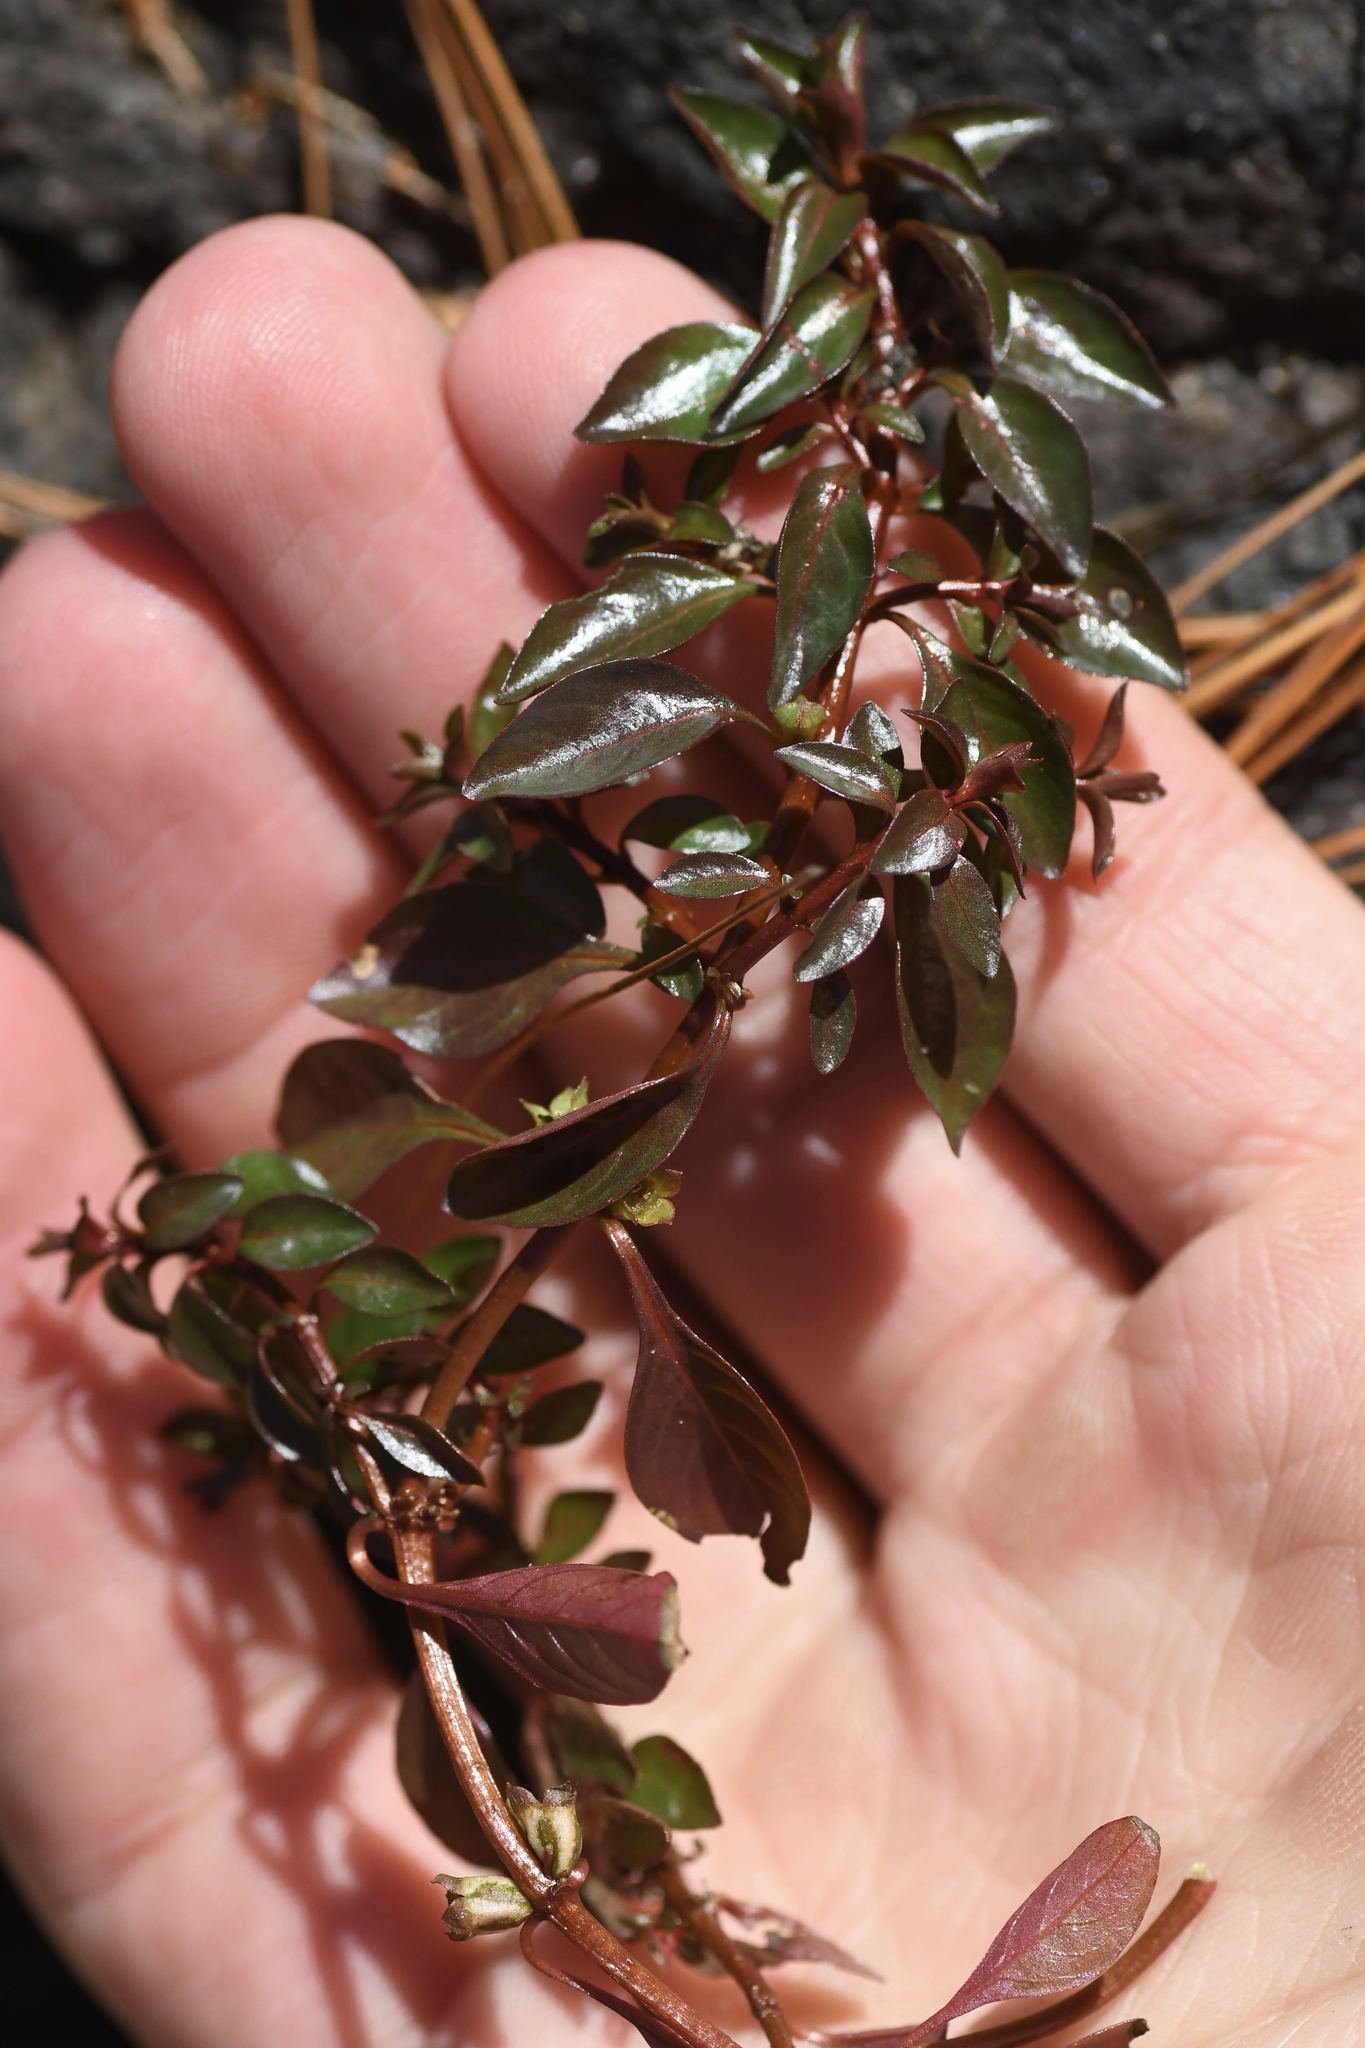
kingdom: Plantae
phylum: Tracheophyta
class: Magnoliopsida
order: Myrtales
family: Onagraceae
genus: Ludwigia
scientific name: Ludwigia palustris
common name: Hampshire-purslane
